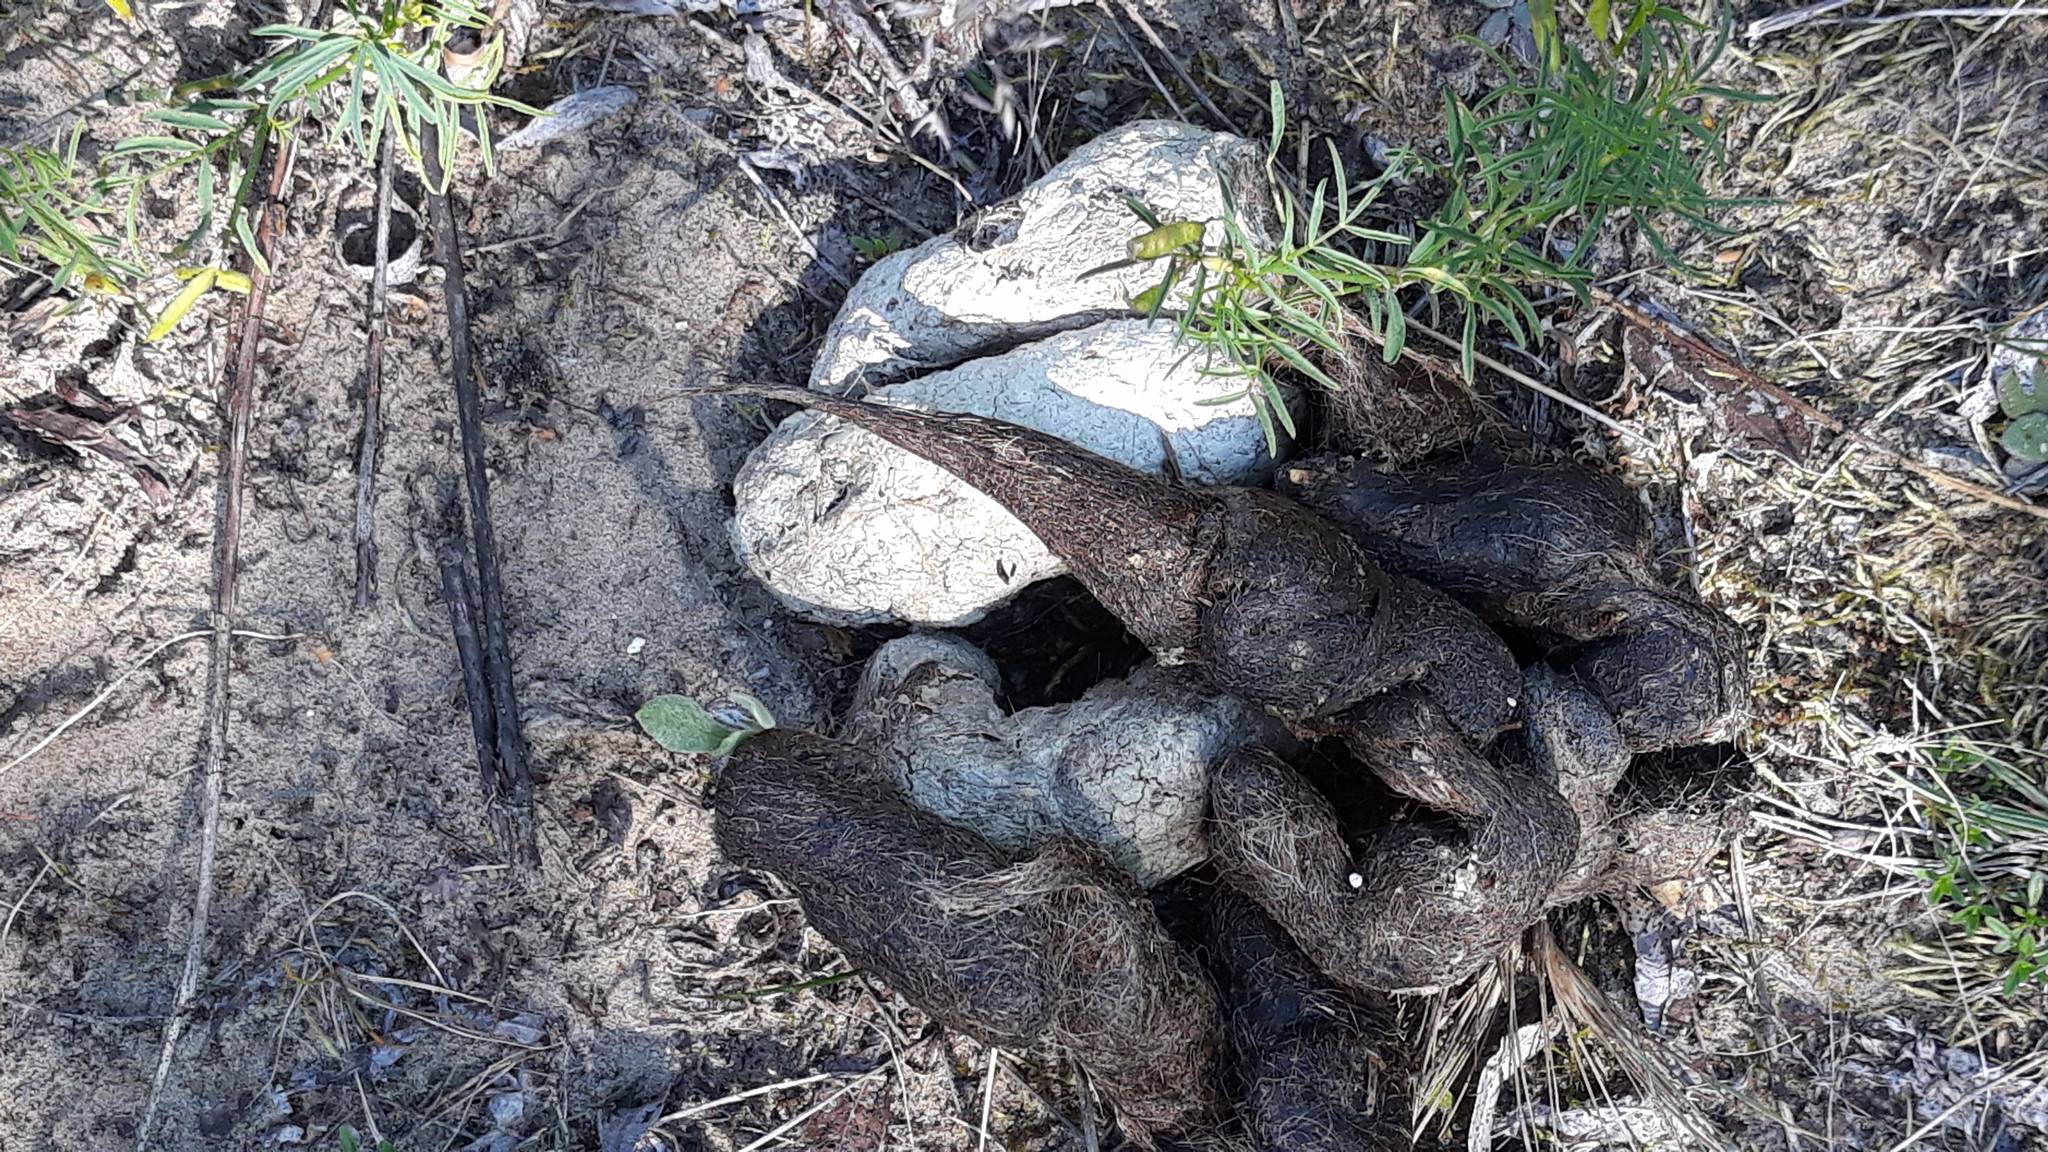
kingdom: Animalia
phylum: Chordata
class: Mammalia
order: Carnivora
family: Canidae
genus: Canis
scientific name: Canis lupus
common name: Gray wolf
